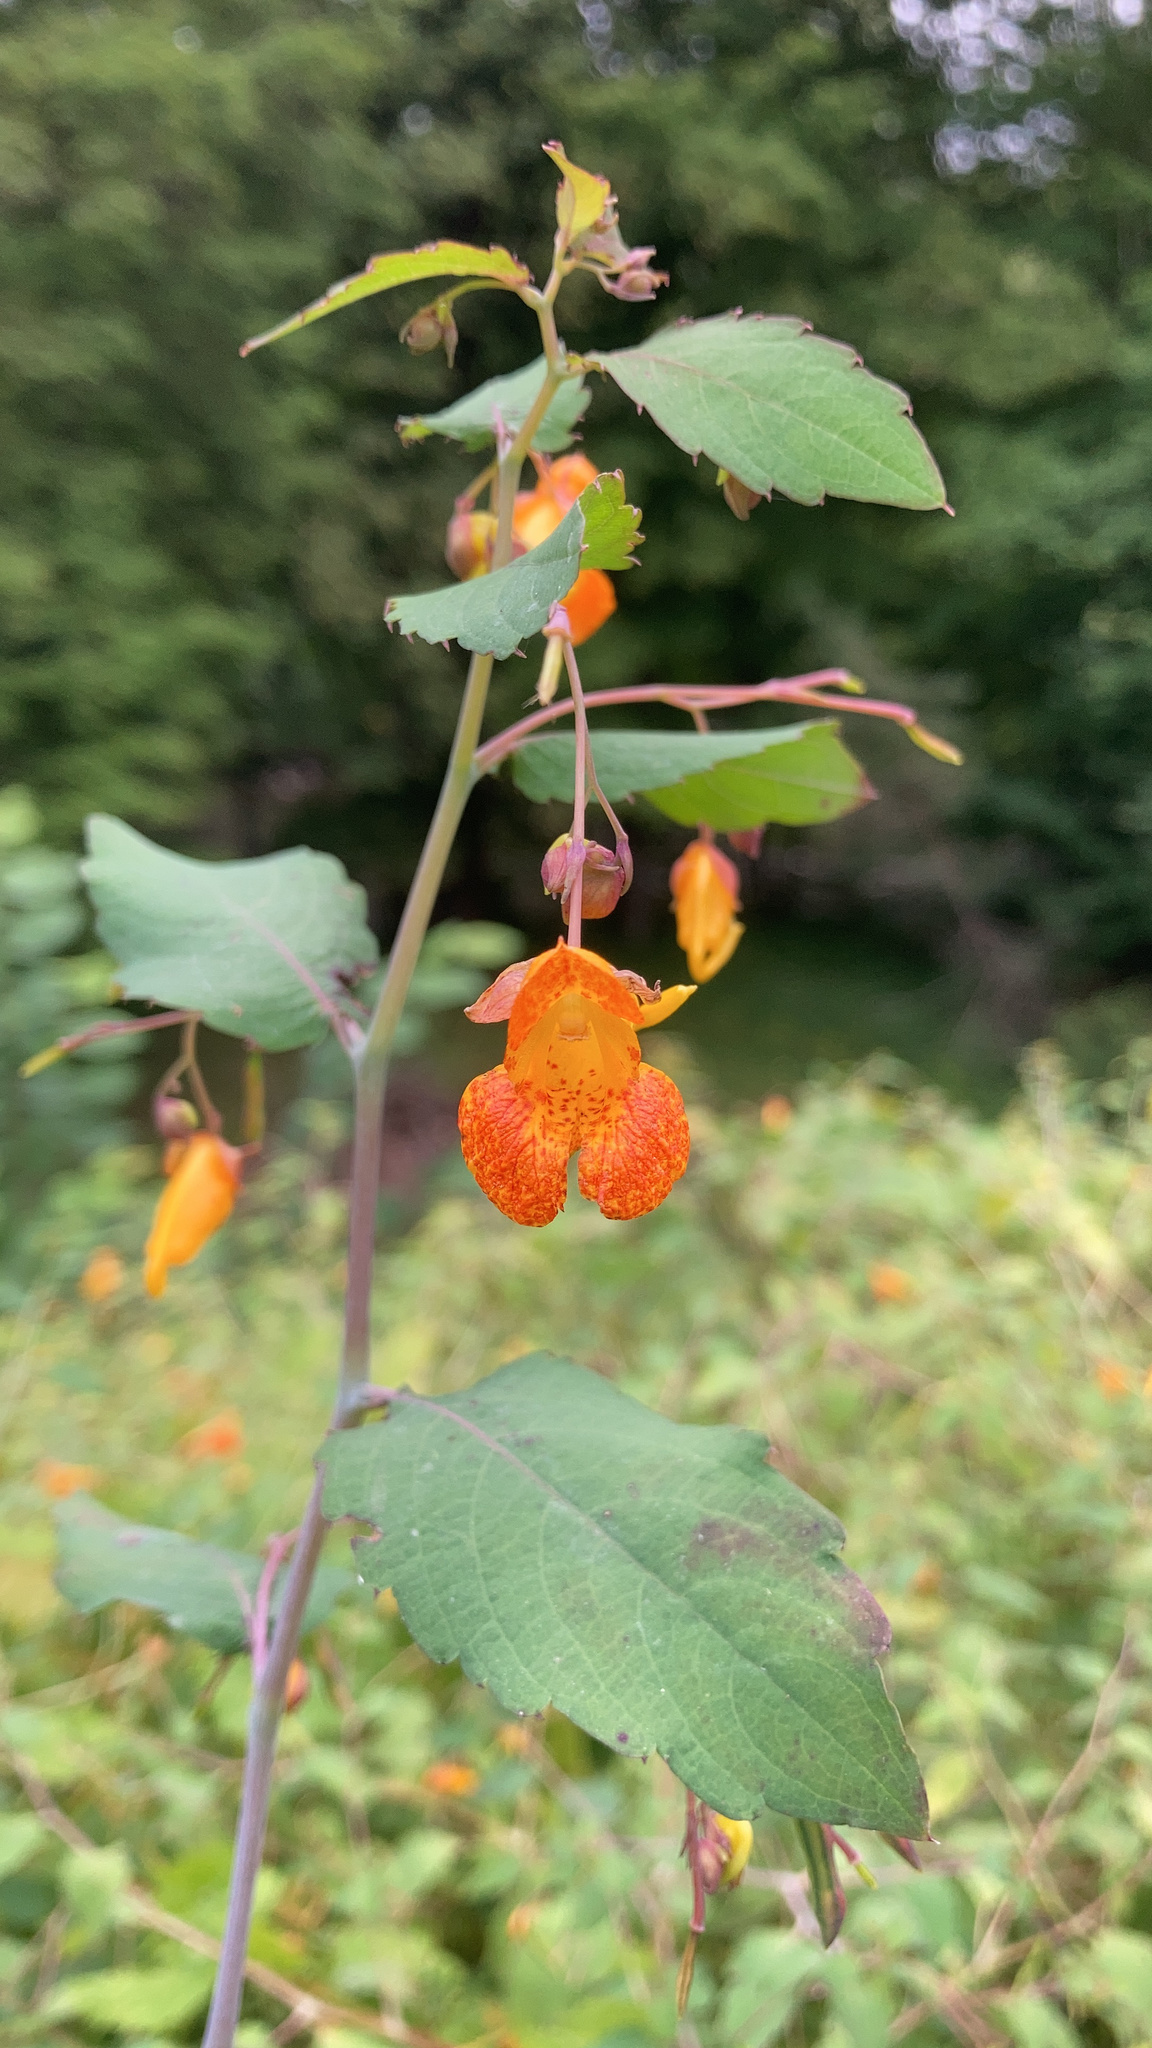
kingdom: Plantae
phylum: Tracheophyta
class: Magnoliopsida
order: Ericales
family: Balsaminaceae
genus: Impatiens
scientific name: Impatiens capensis
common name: Orange balsam
